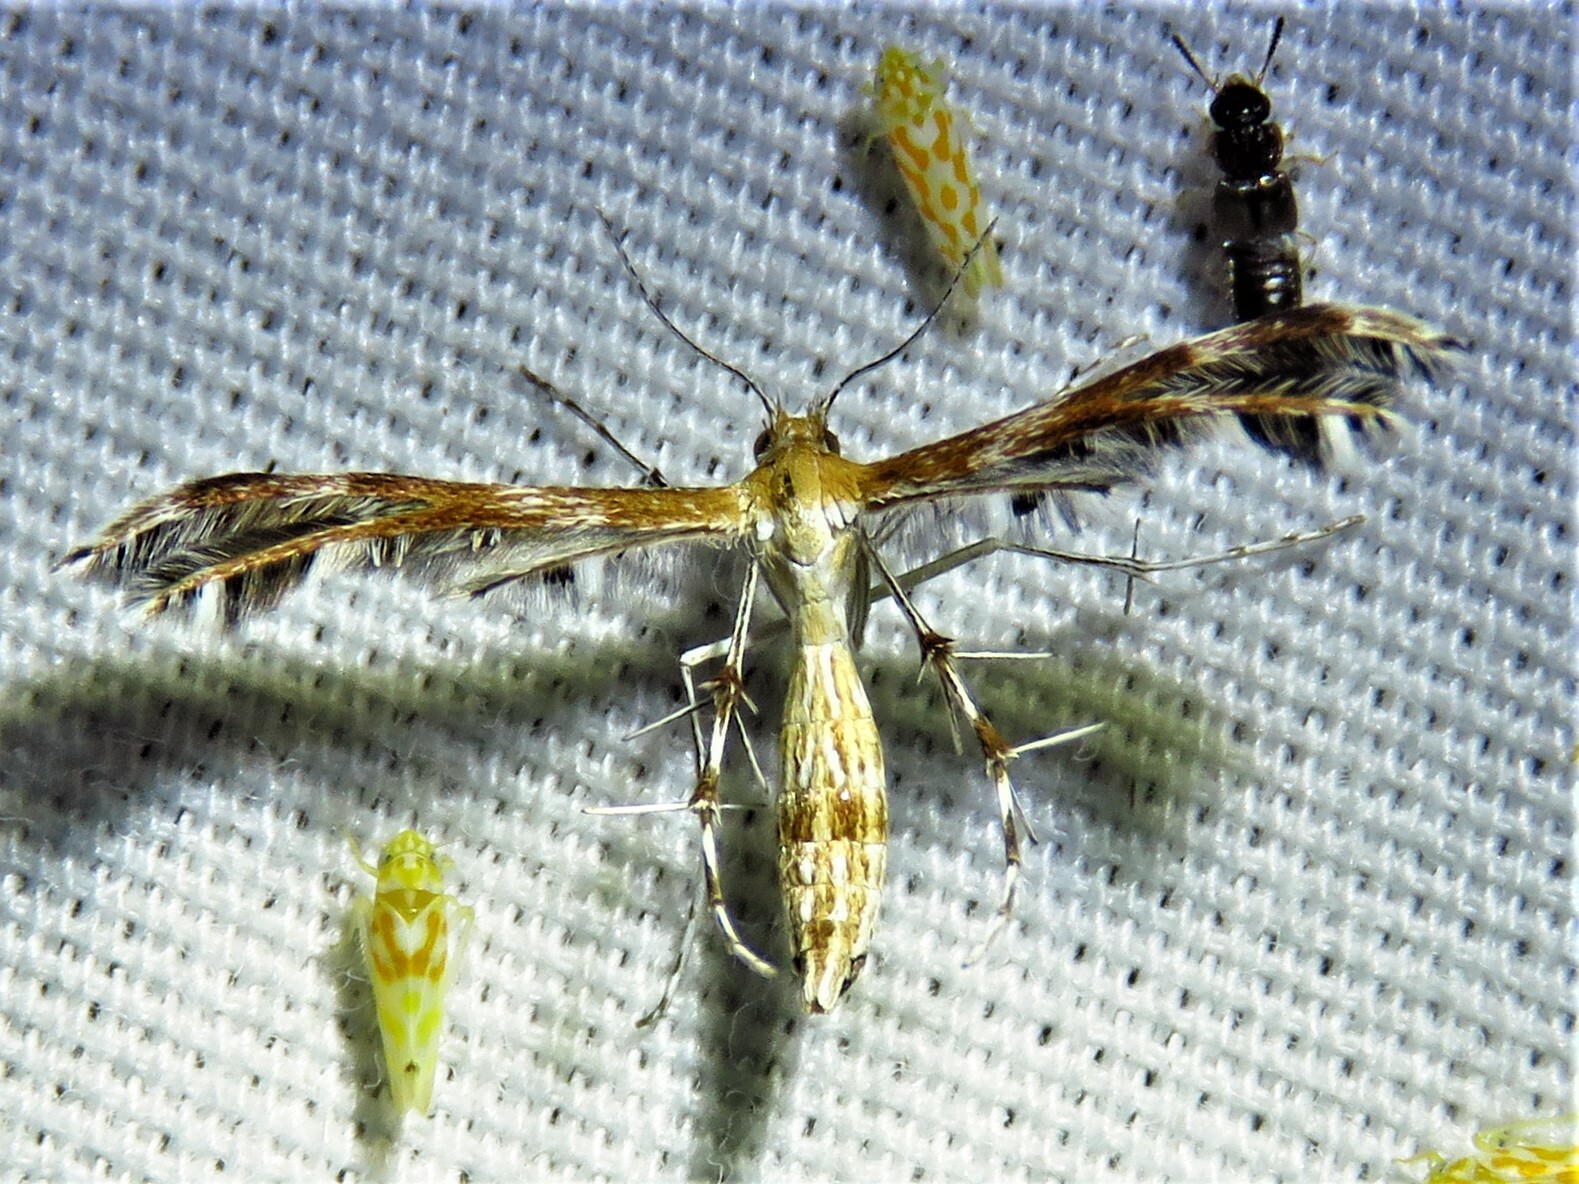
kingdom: Animalia
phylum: Arthropoda
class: Insecta
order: Lepidoptera
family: Pterophoridae
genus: Dejongia
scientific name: Dejongia californicus
